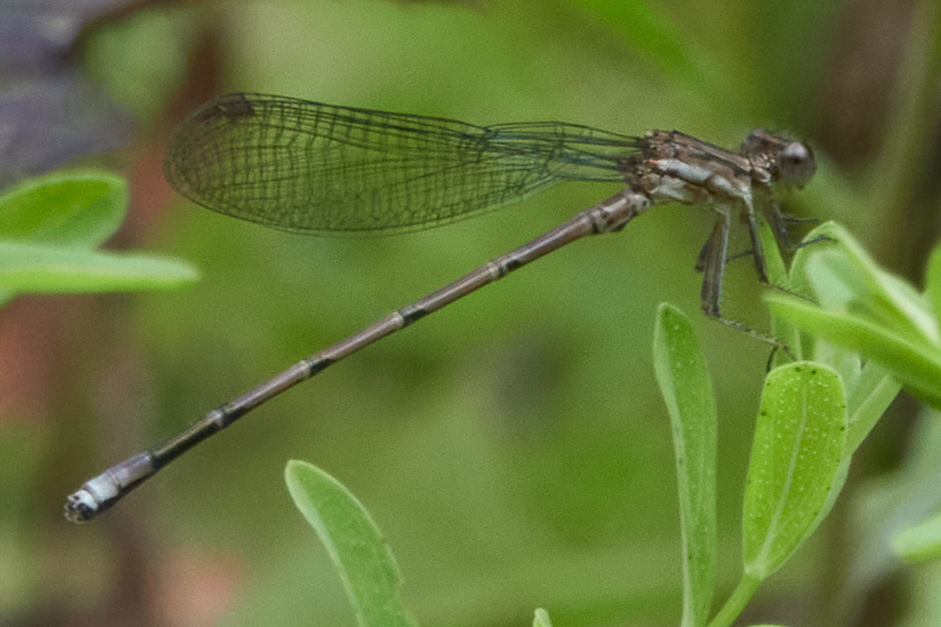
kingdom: Animalia
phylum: Arthropoda
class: Insecta
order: Odonata
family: Coenagrionidae
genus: Argia
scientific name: Argia fumipennis
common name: Variable dancer
